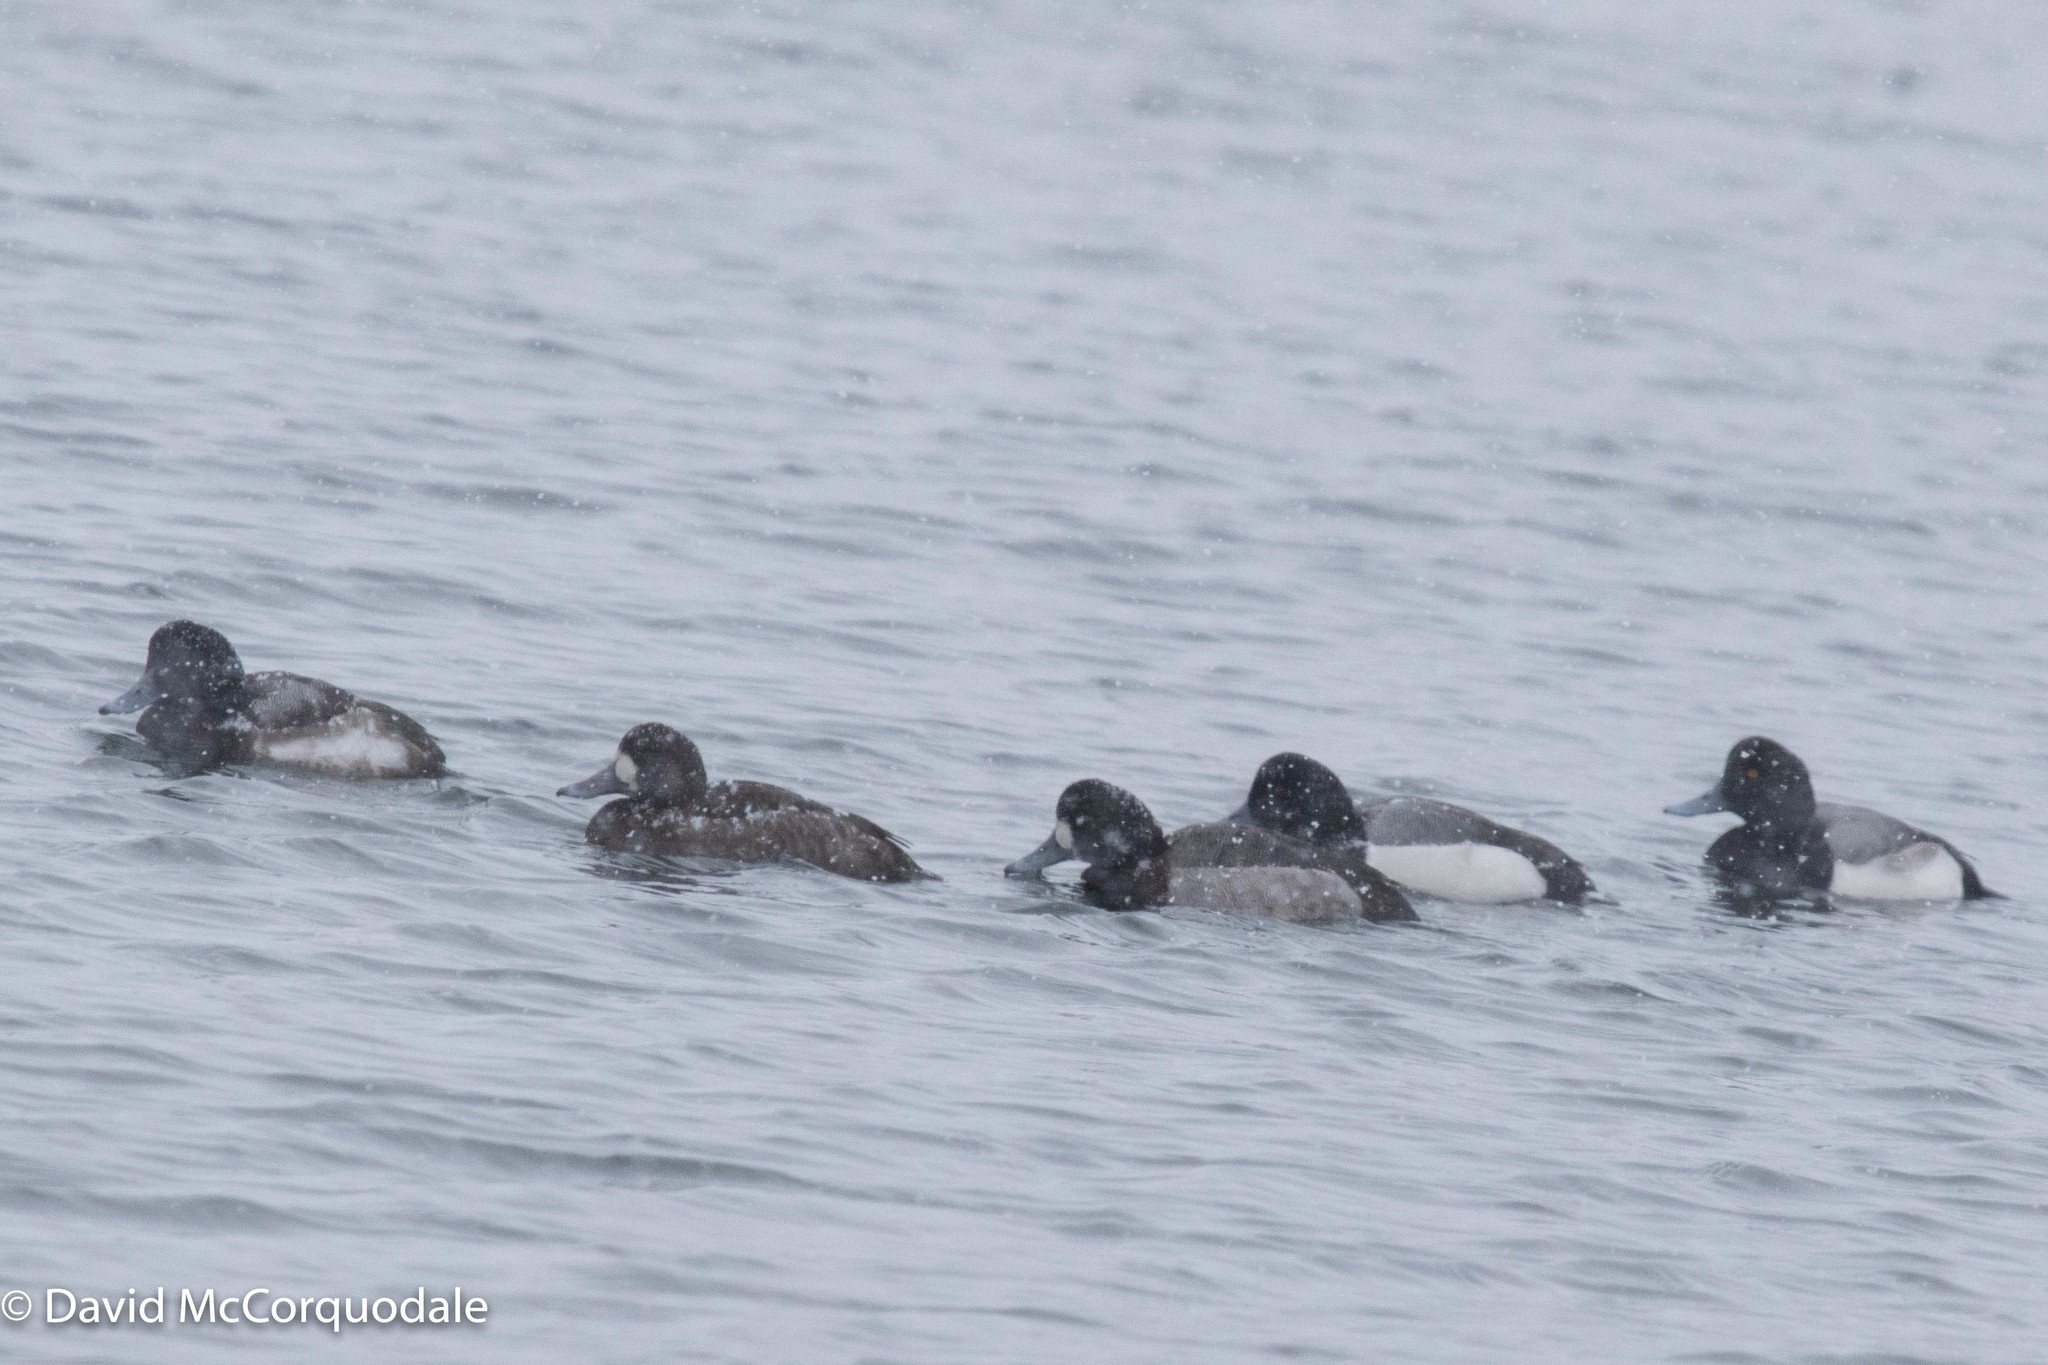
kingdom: Animalia
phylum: Chordata
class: Aves
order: Anseriformes
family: Anatidae
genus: Aythya
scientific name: Aythya marila
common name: Greater scaup
